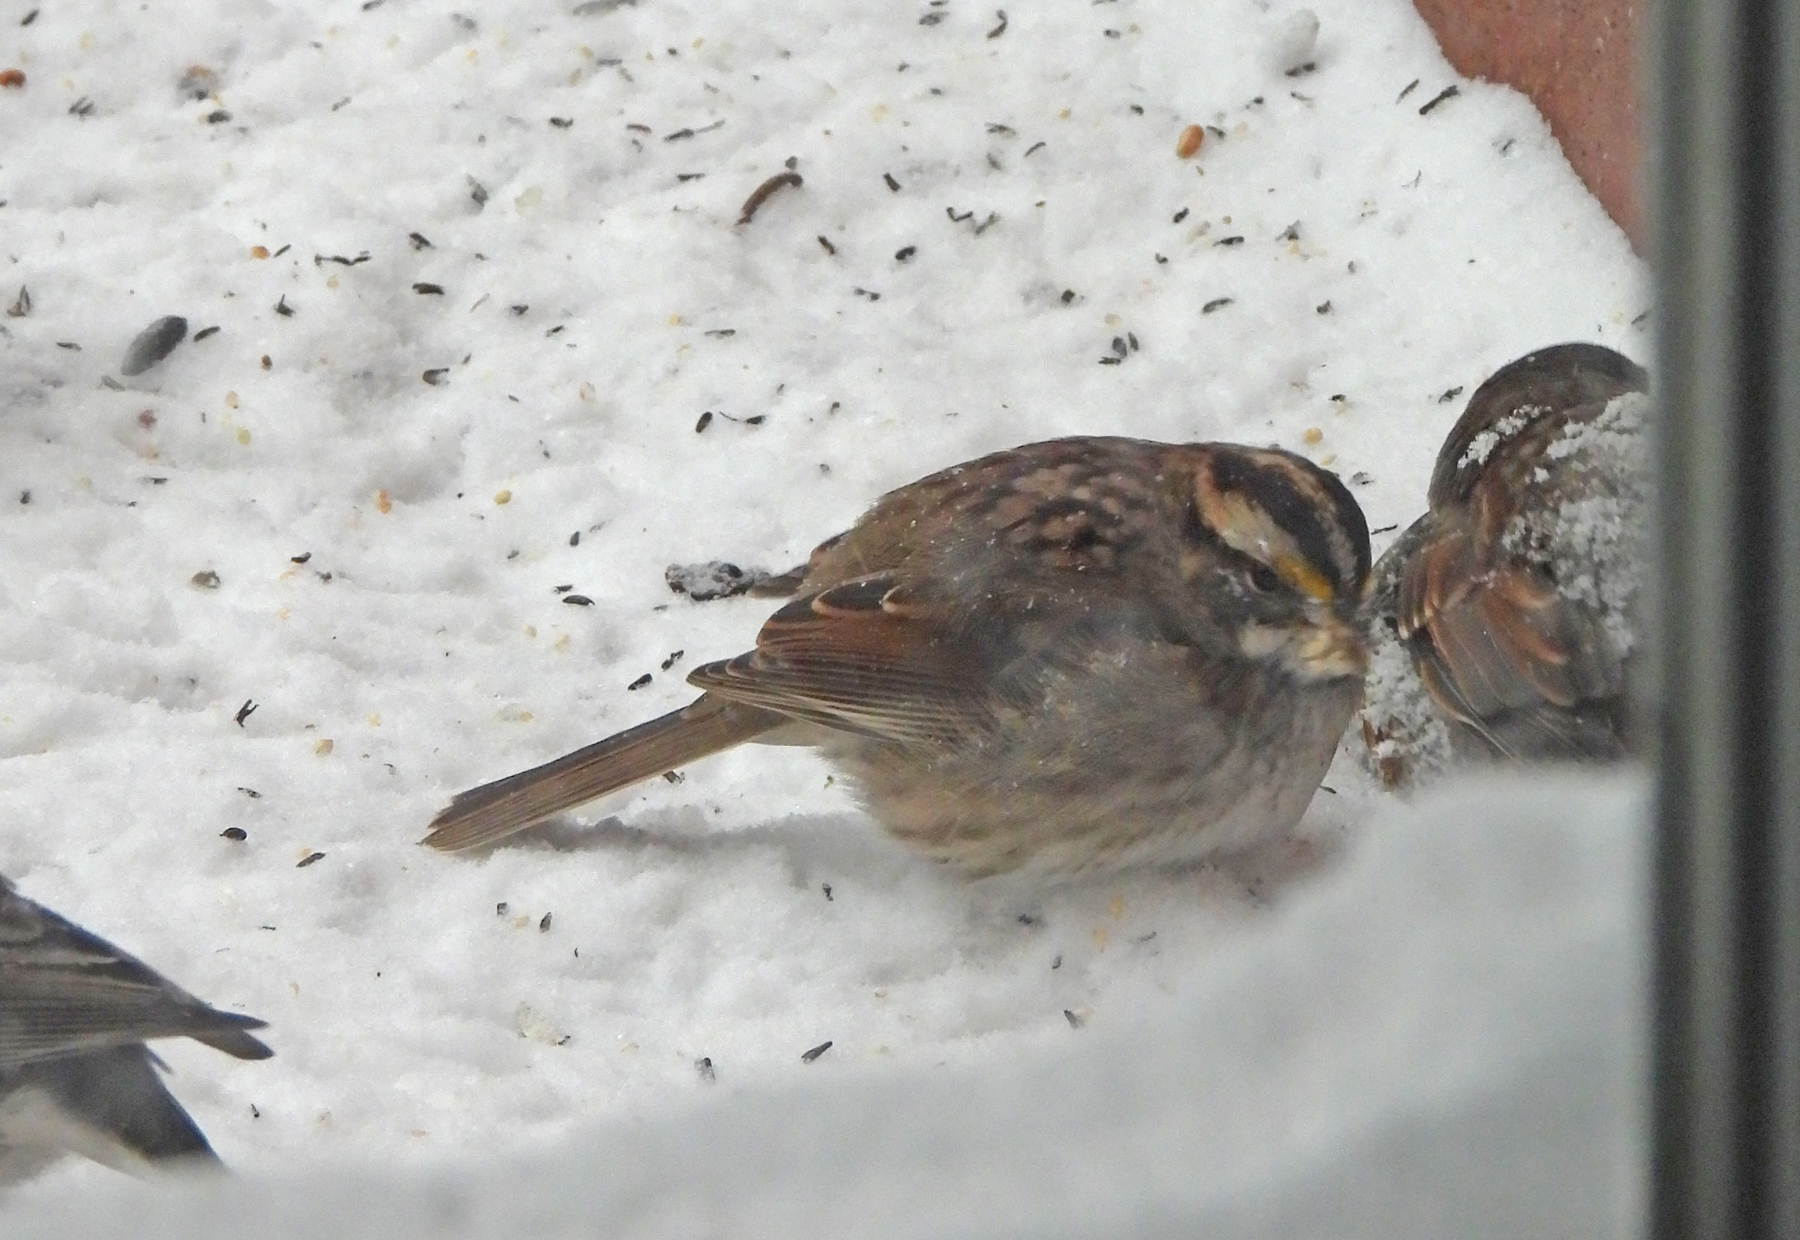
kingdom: Animalia
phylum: Chordata
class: Aves
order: Passeriformes
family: Passerellidae
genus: Zonotrichia
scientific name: Zonotrichia albicollis
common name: White-throated sparrow
